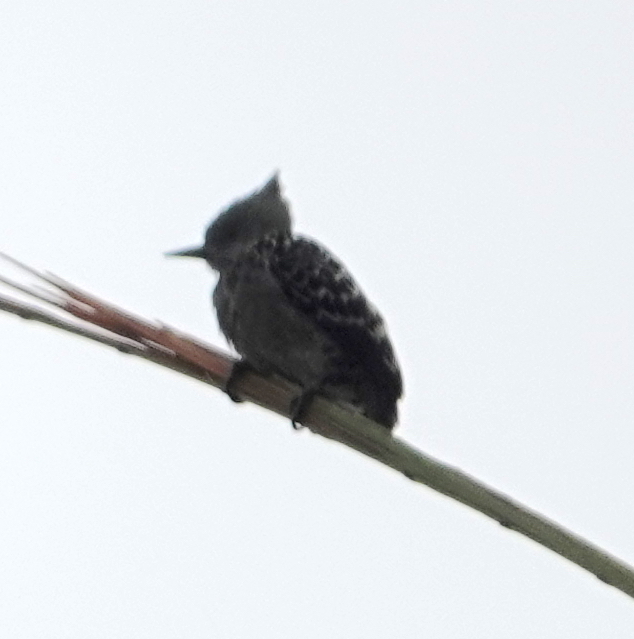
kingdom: Animalia
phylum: Chordata
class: Aves
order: Piciformes
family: Picidae
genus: Hemicircus
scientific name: Hemicircus concretus
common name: Grey-and-buff woodpecker
